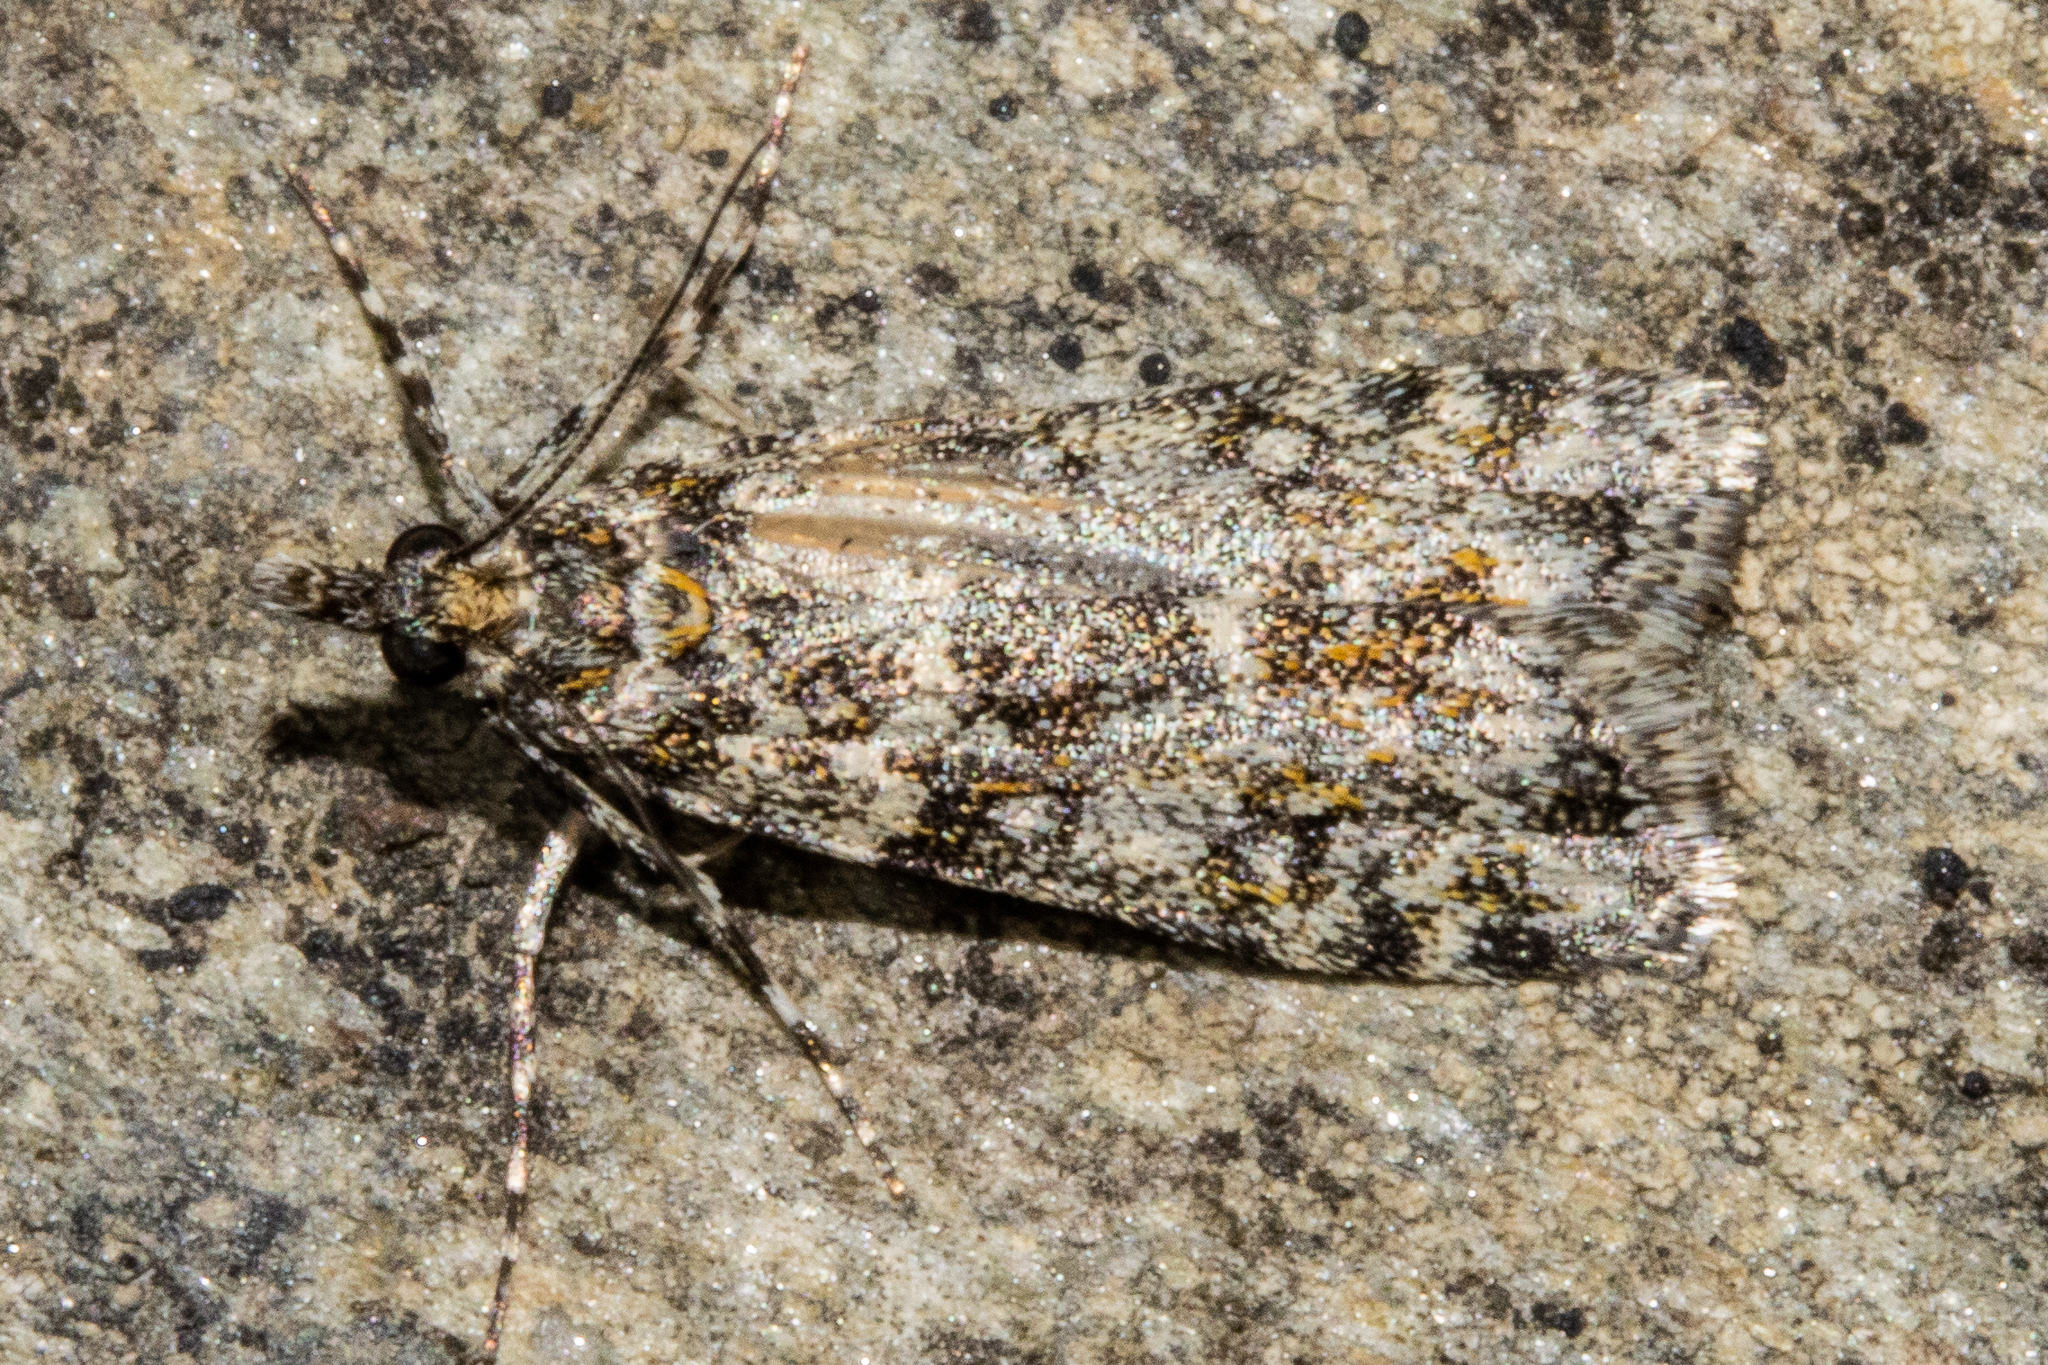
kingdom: Animalia
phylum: Arthropoda
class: Insecta
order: Lepidoptera
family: Crambidae
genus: Eudonia
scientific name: Eudonia
